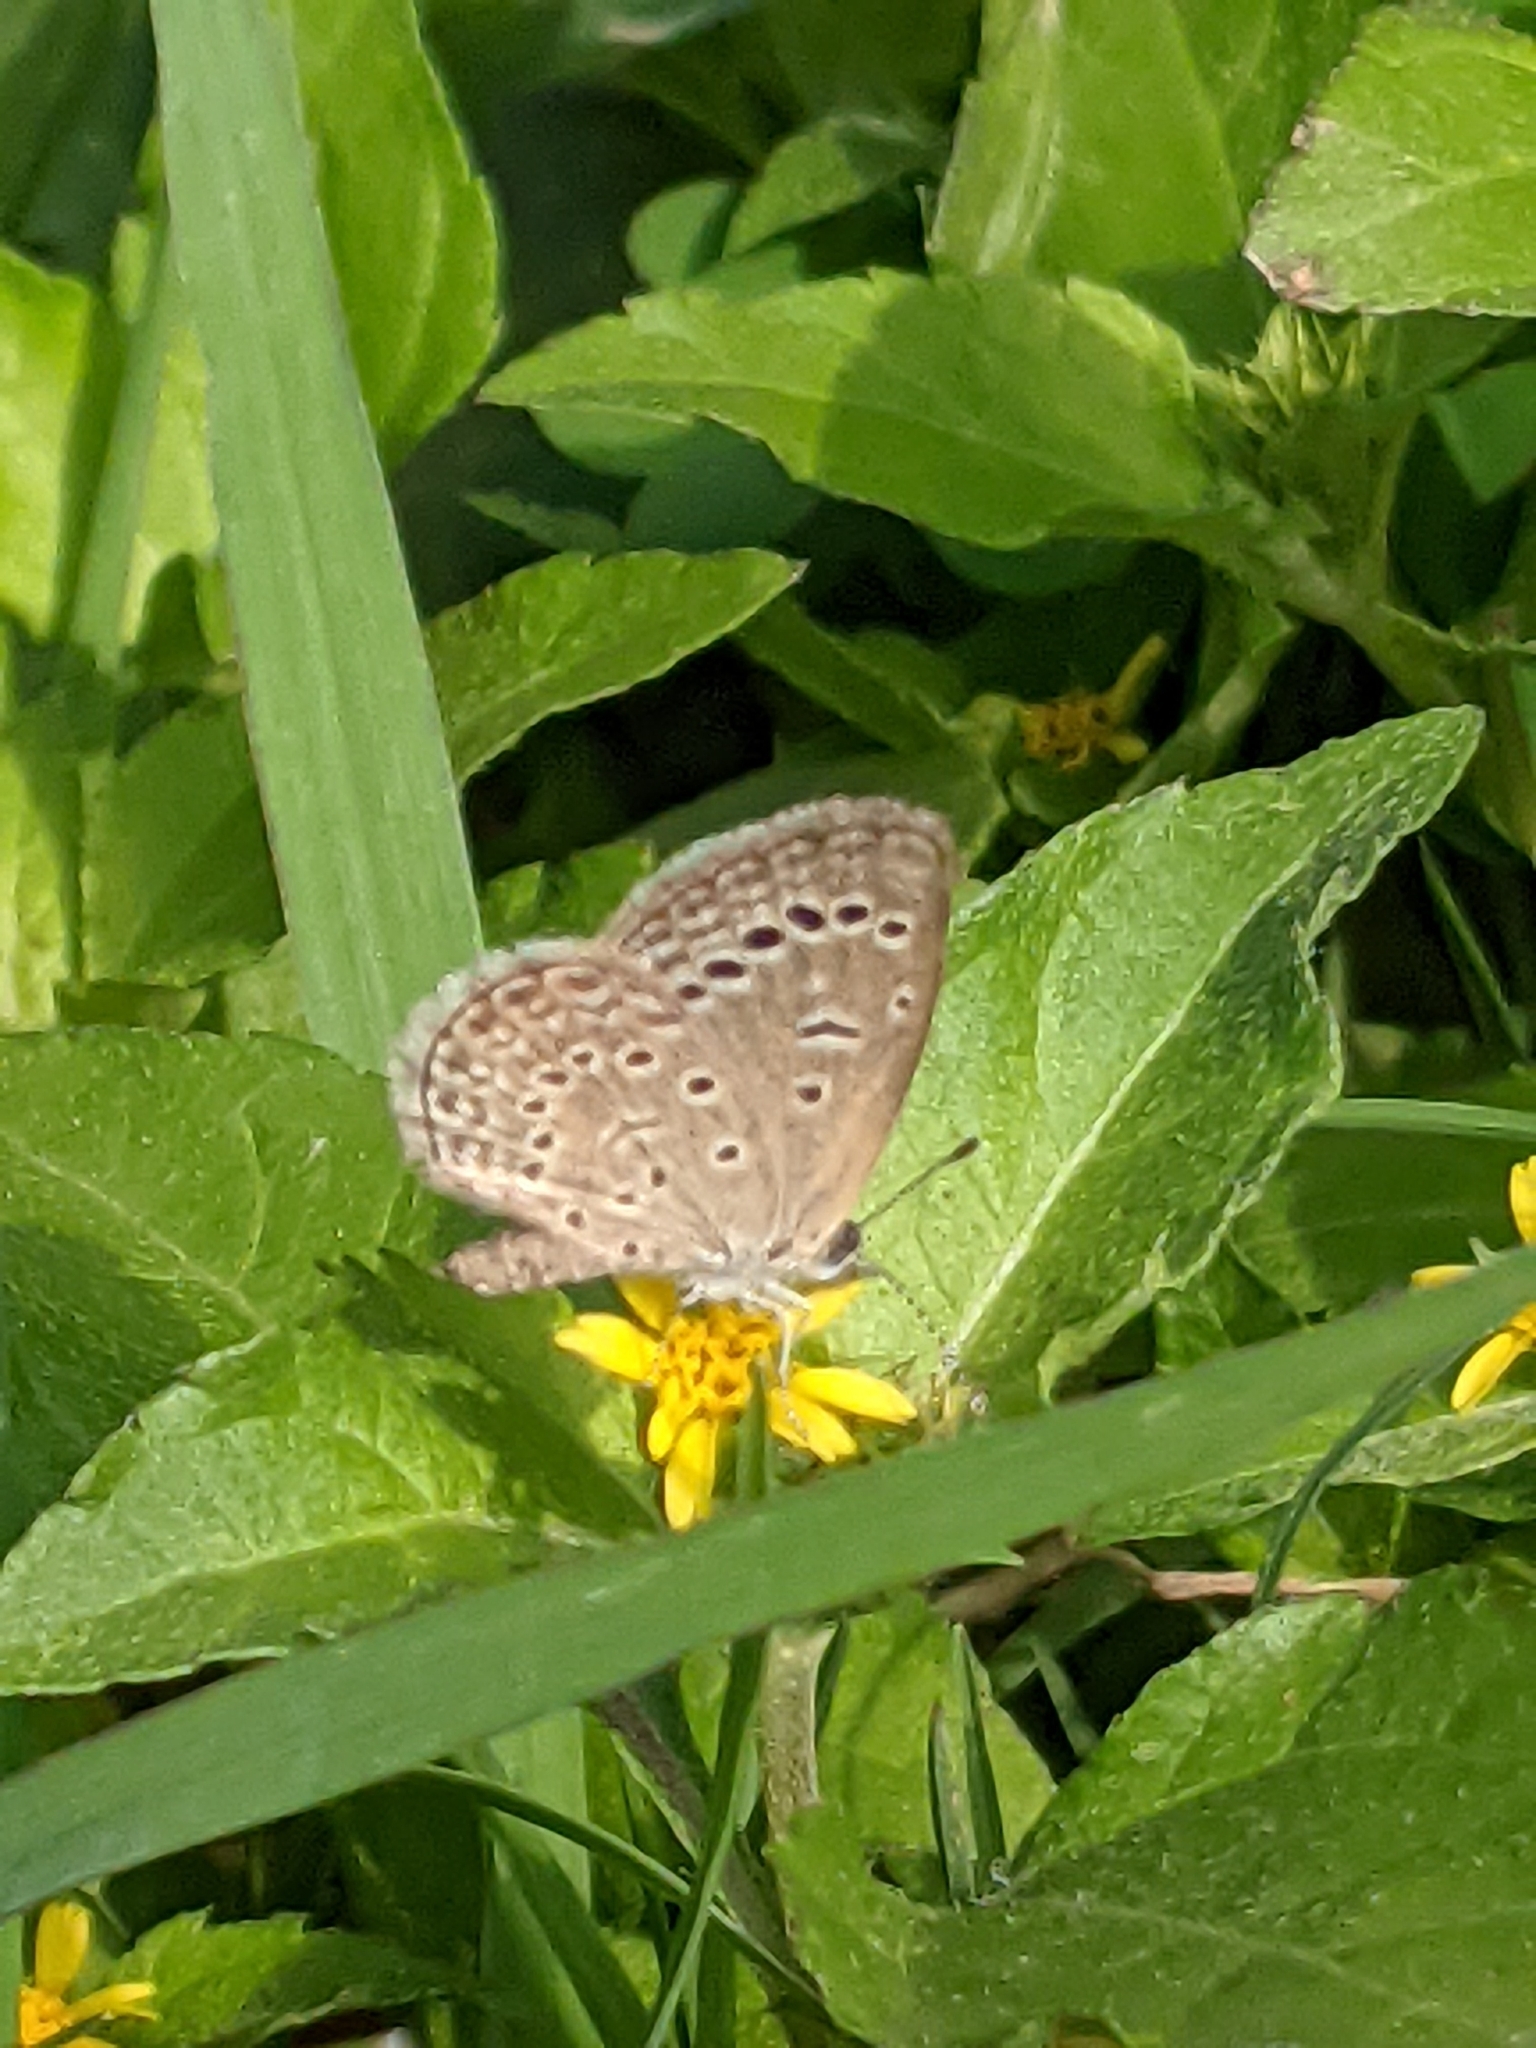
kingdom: Animalia
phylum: Arthropoda
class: Insecta
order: Lepidoptera
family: Lycaenidae
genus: Zizeeria
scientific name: Zizeeria karsandra
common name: Dark grass blue
